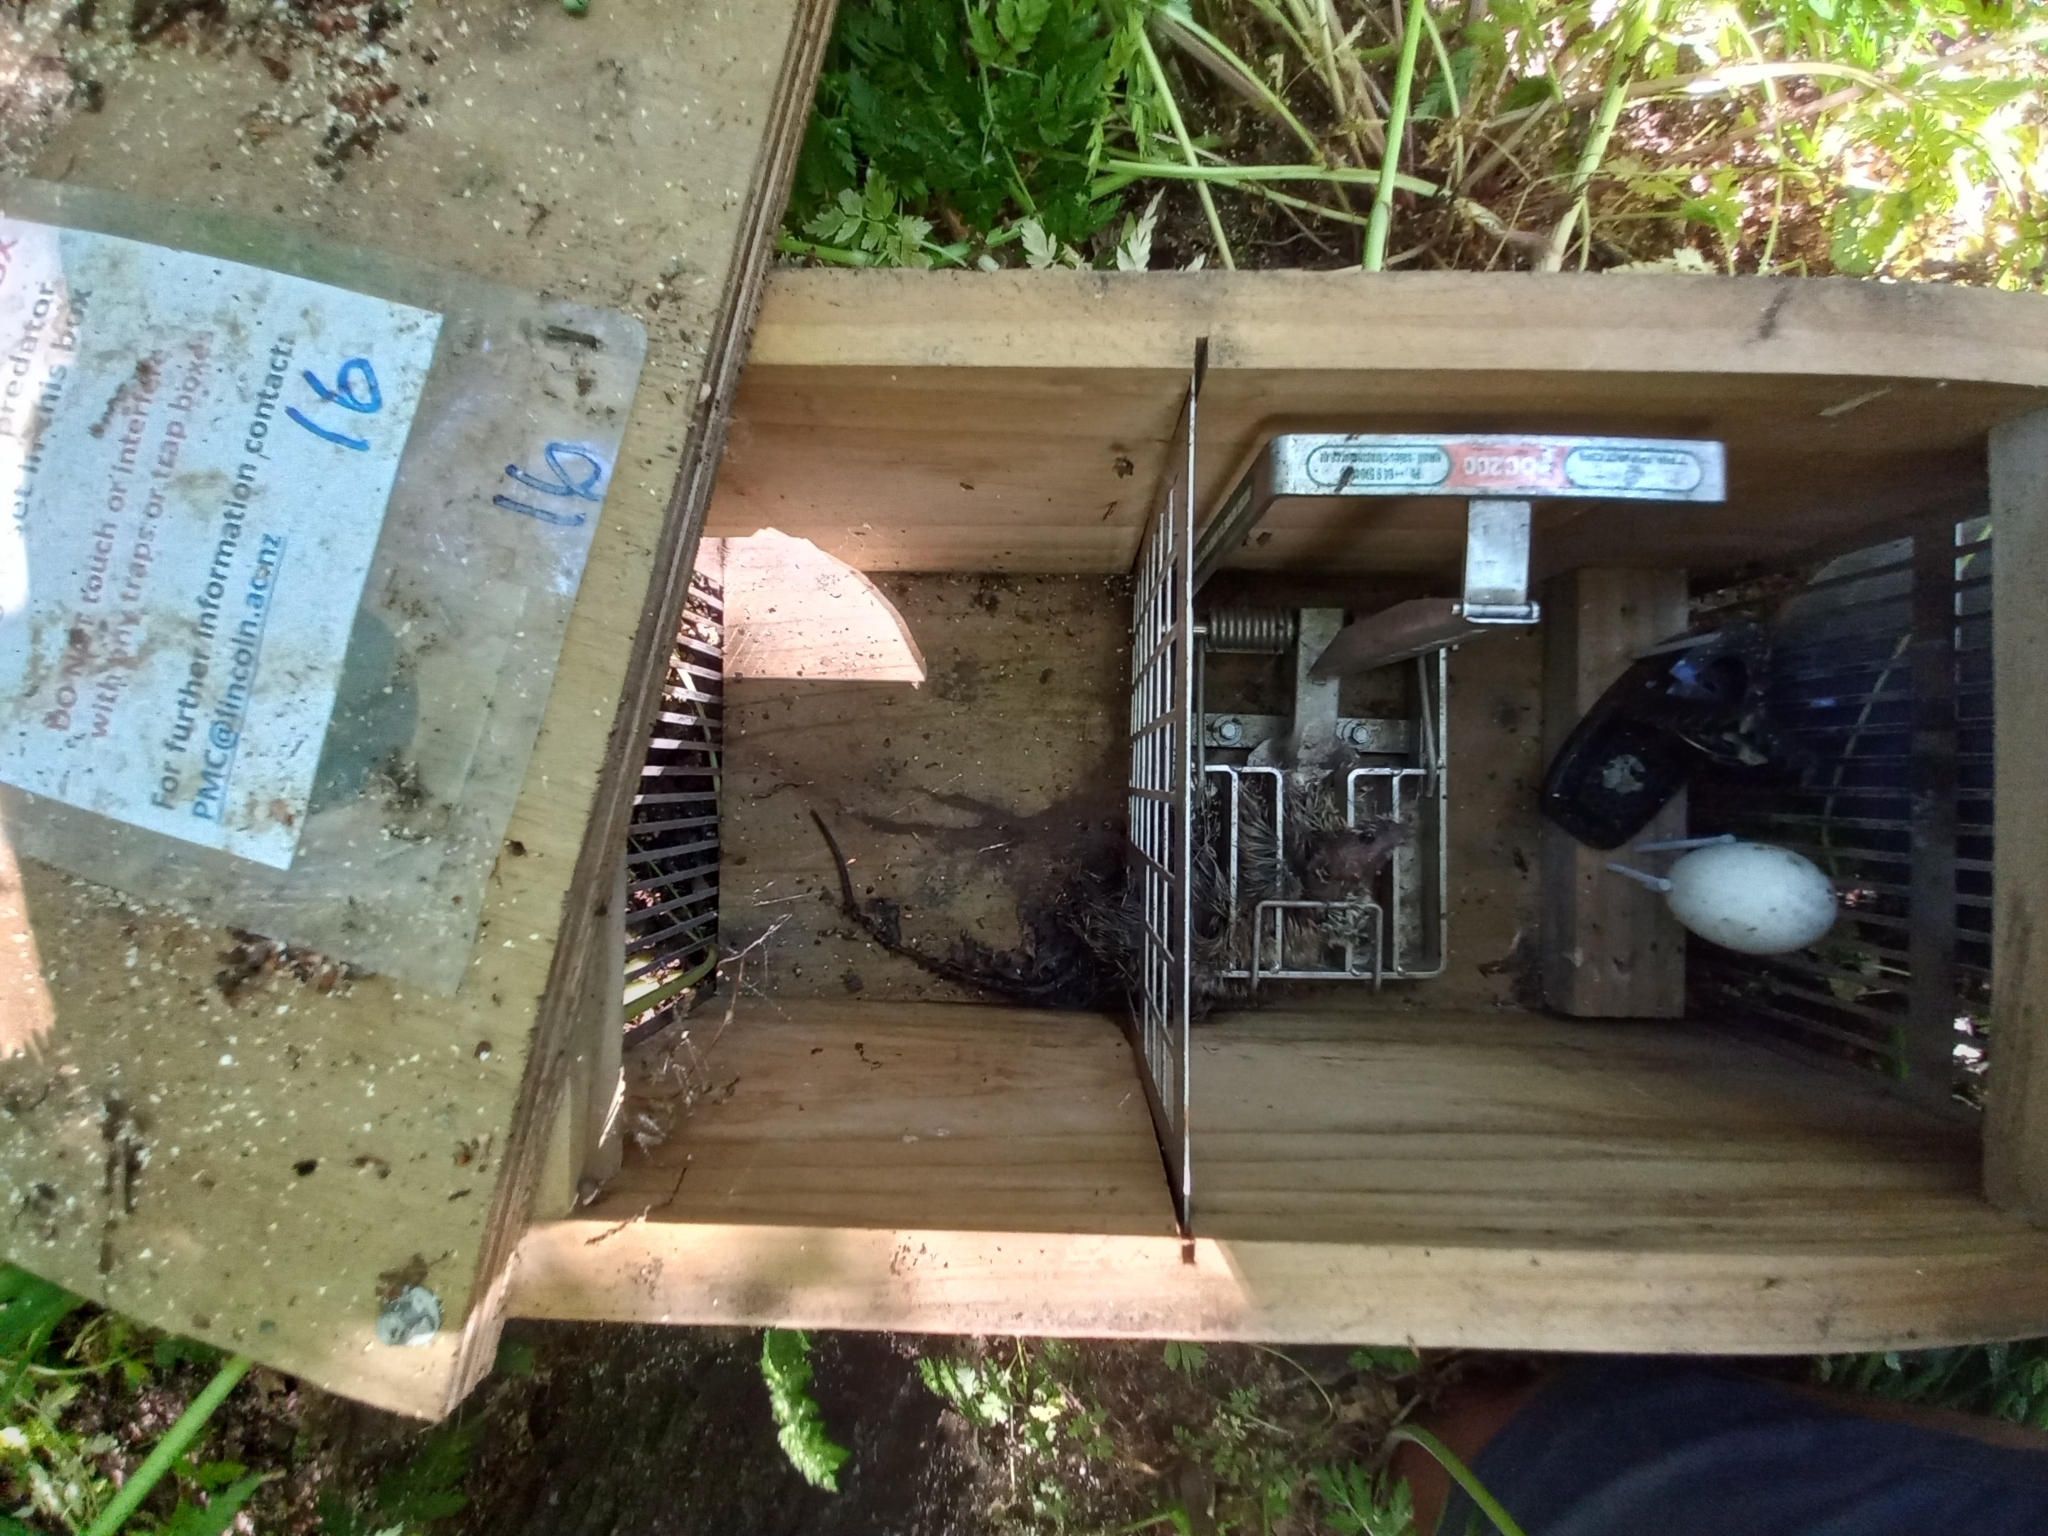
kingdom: Animalia
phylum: Chordata
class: Mammalia
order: Rodentia
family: Muridae
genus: Rattus
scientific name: Rattus rattus
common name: Black rat
